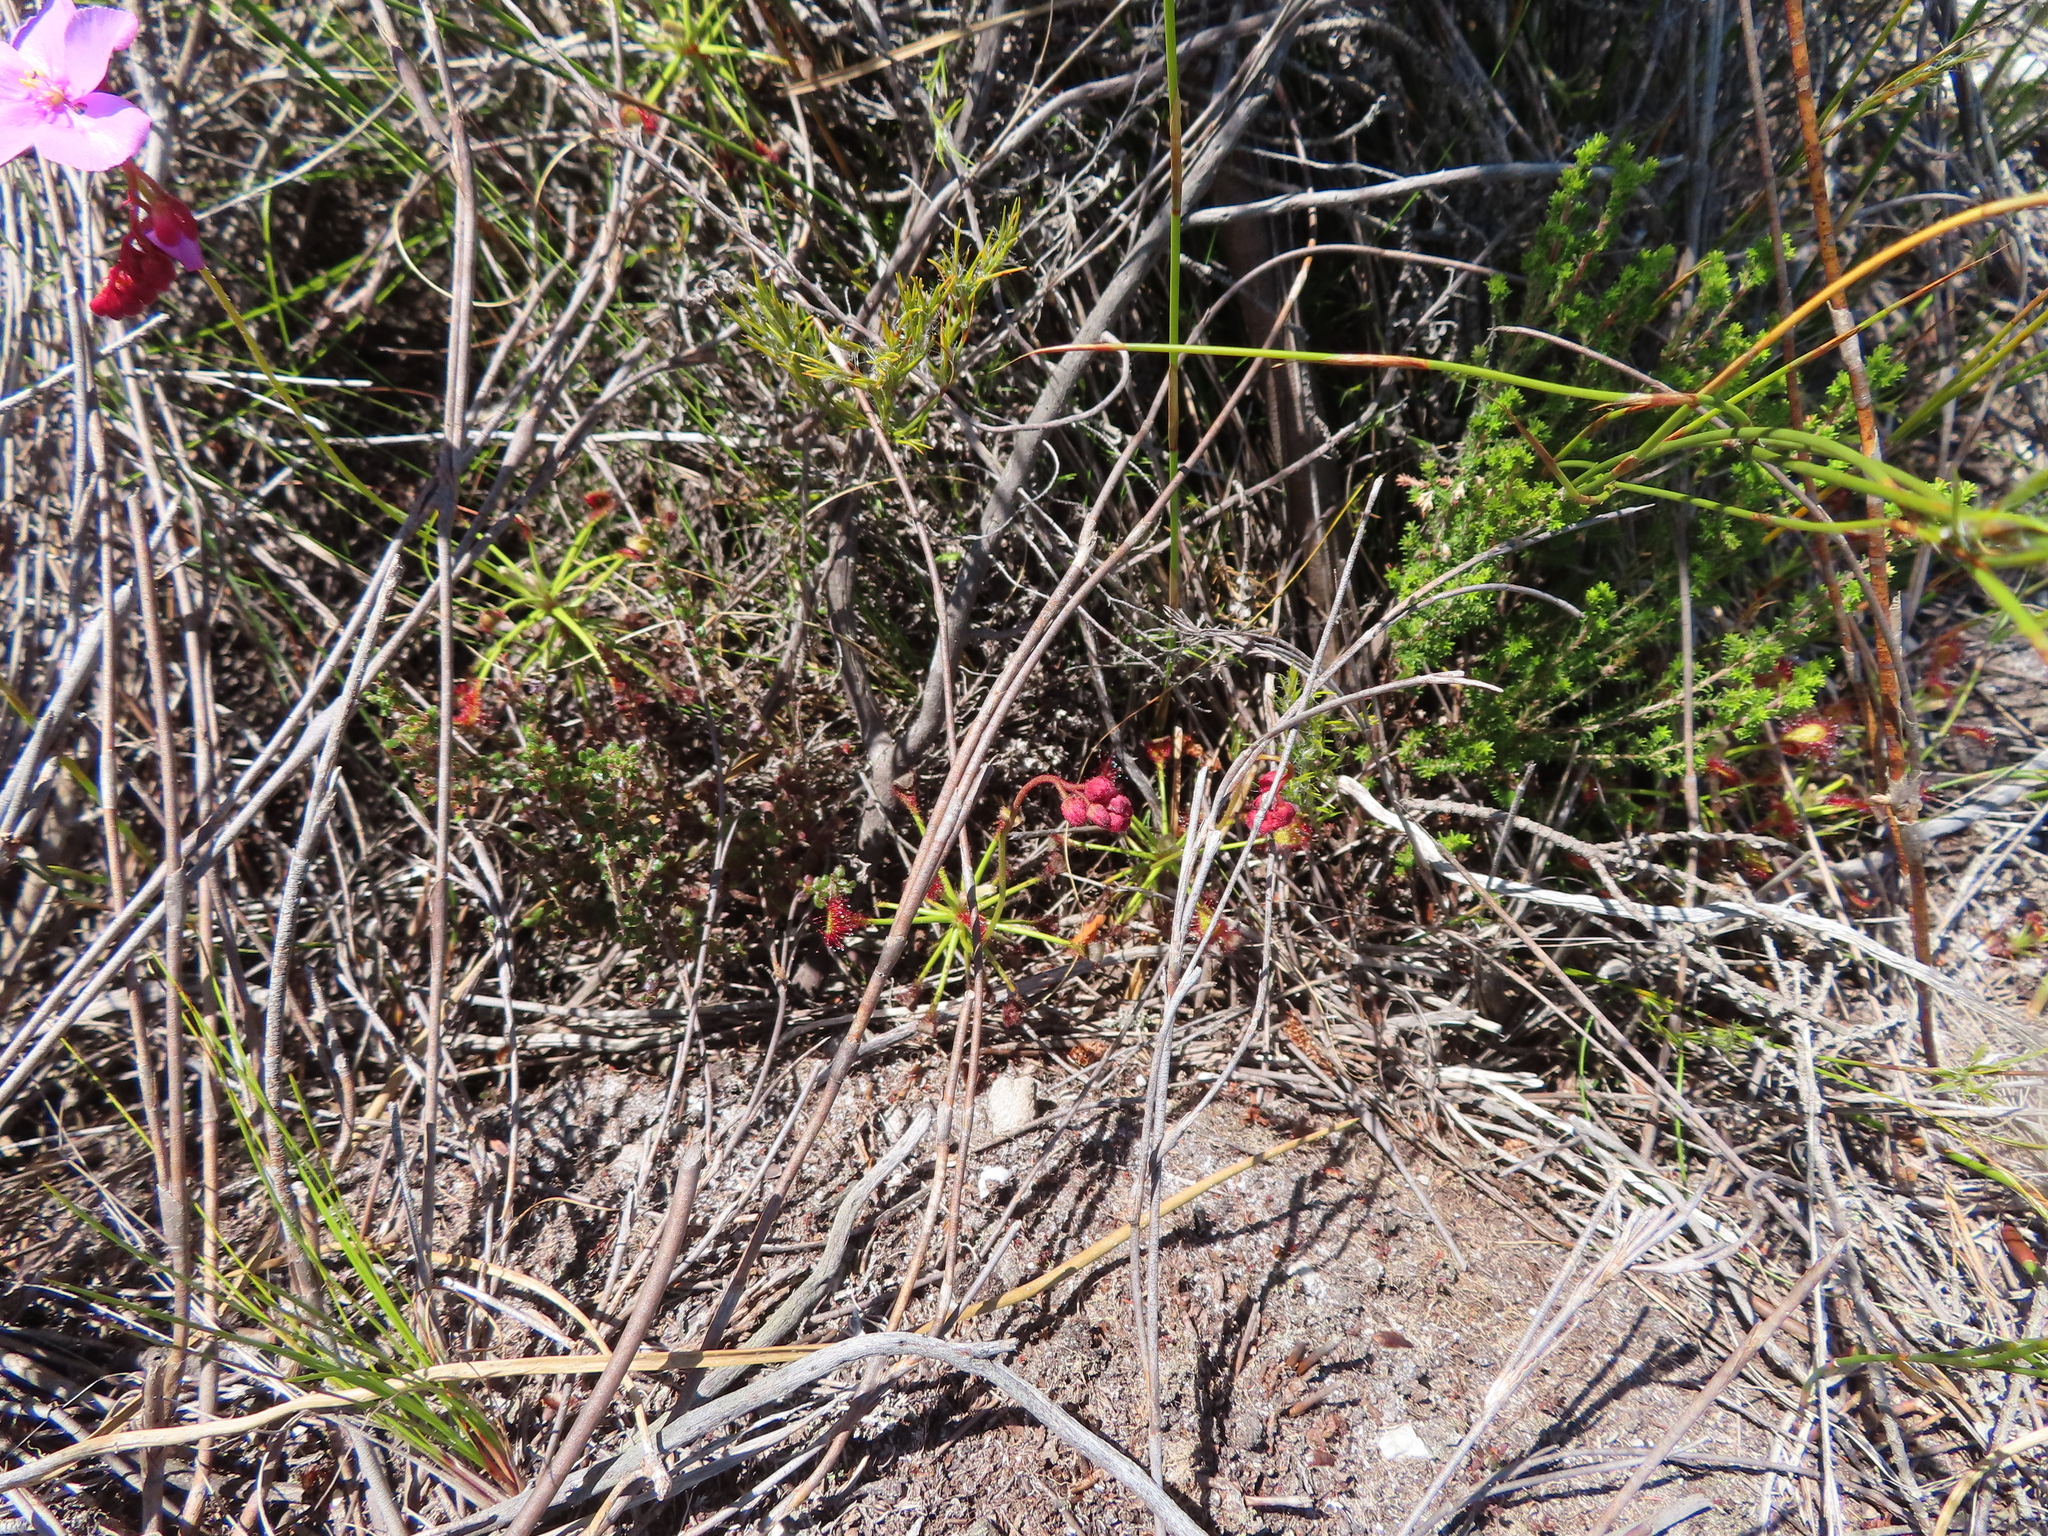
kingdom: Plantae
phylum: Tracheophyta
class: Magnoliopsida
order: Caryophyllales
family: Droseraceae
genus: Drosera
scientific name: Drosera glabripes
